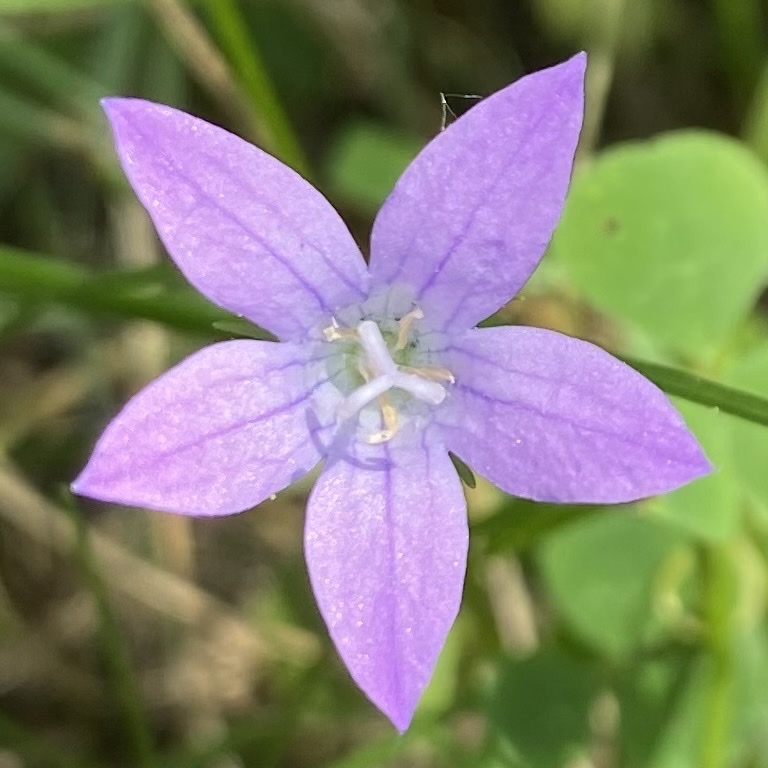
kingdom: Plantae
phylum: Tracheophyta
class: Magnoliopsida
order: Asterales
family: Campanulaceae
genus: Campanula
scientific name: Campanula patula
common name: Spreading bellflower
